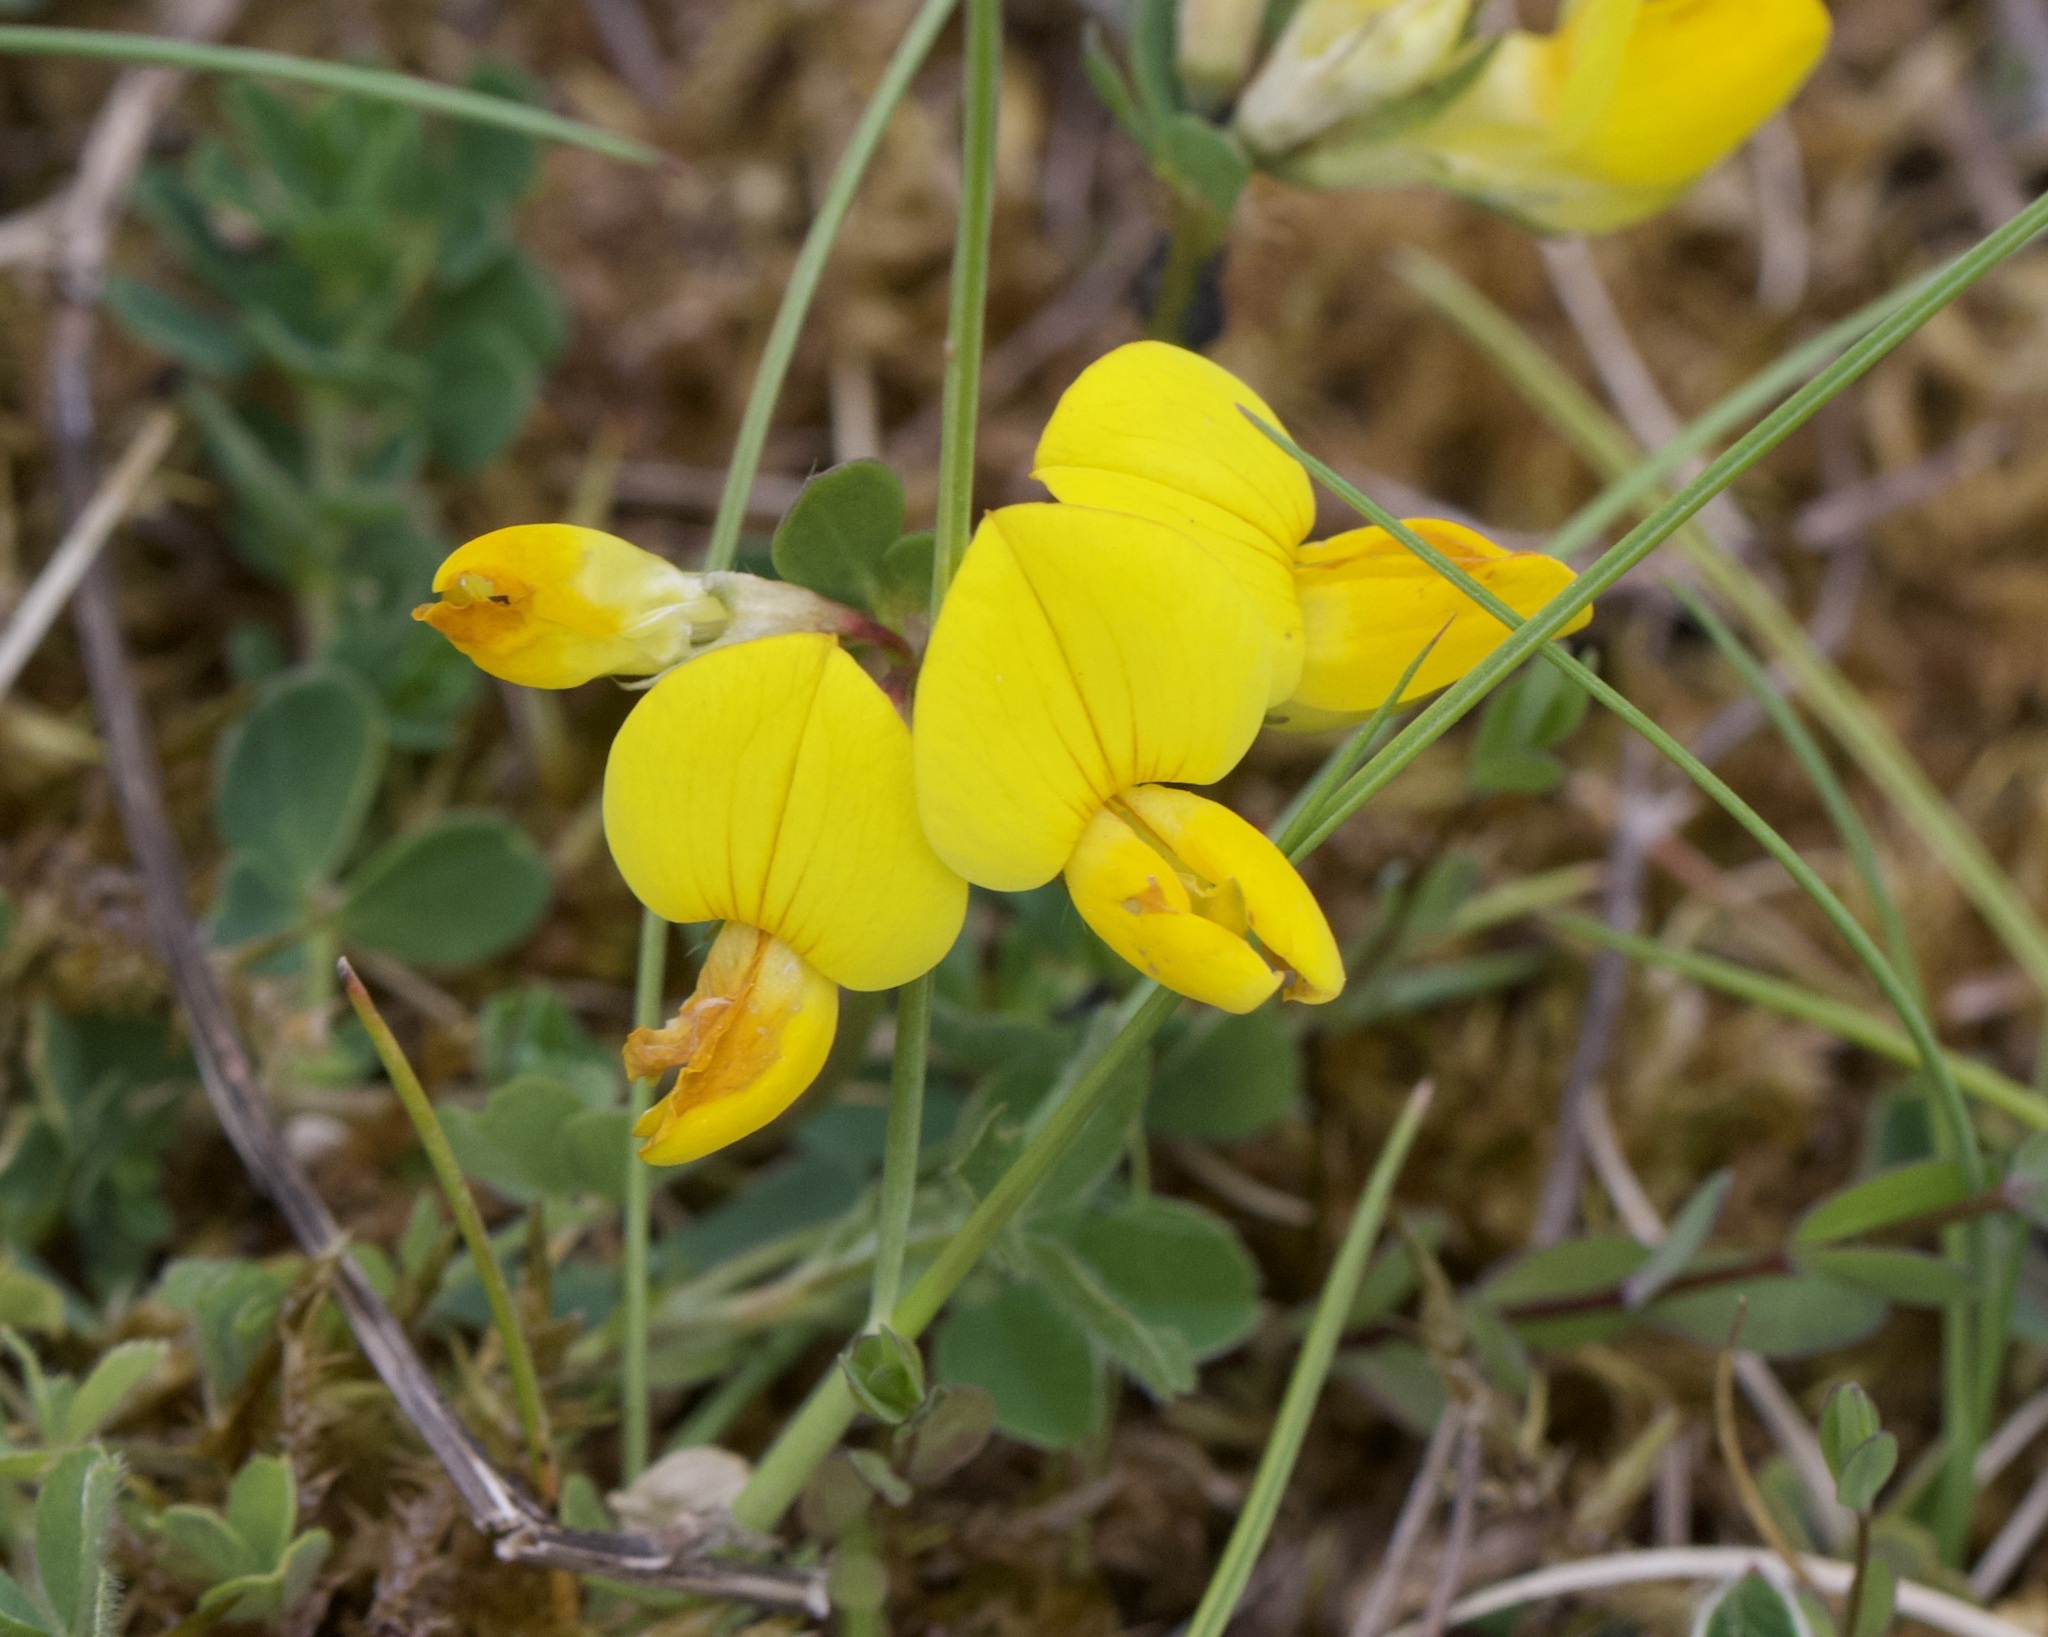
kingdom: Plantae
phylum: Tracheophyta
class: Magnoliopsida
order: Fabales
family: Fabaceae
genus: Lotus
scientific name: Lotus corniculatus
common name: Common bird's-foot-trefoil
